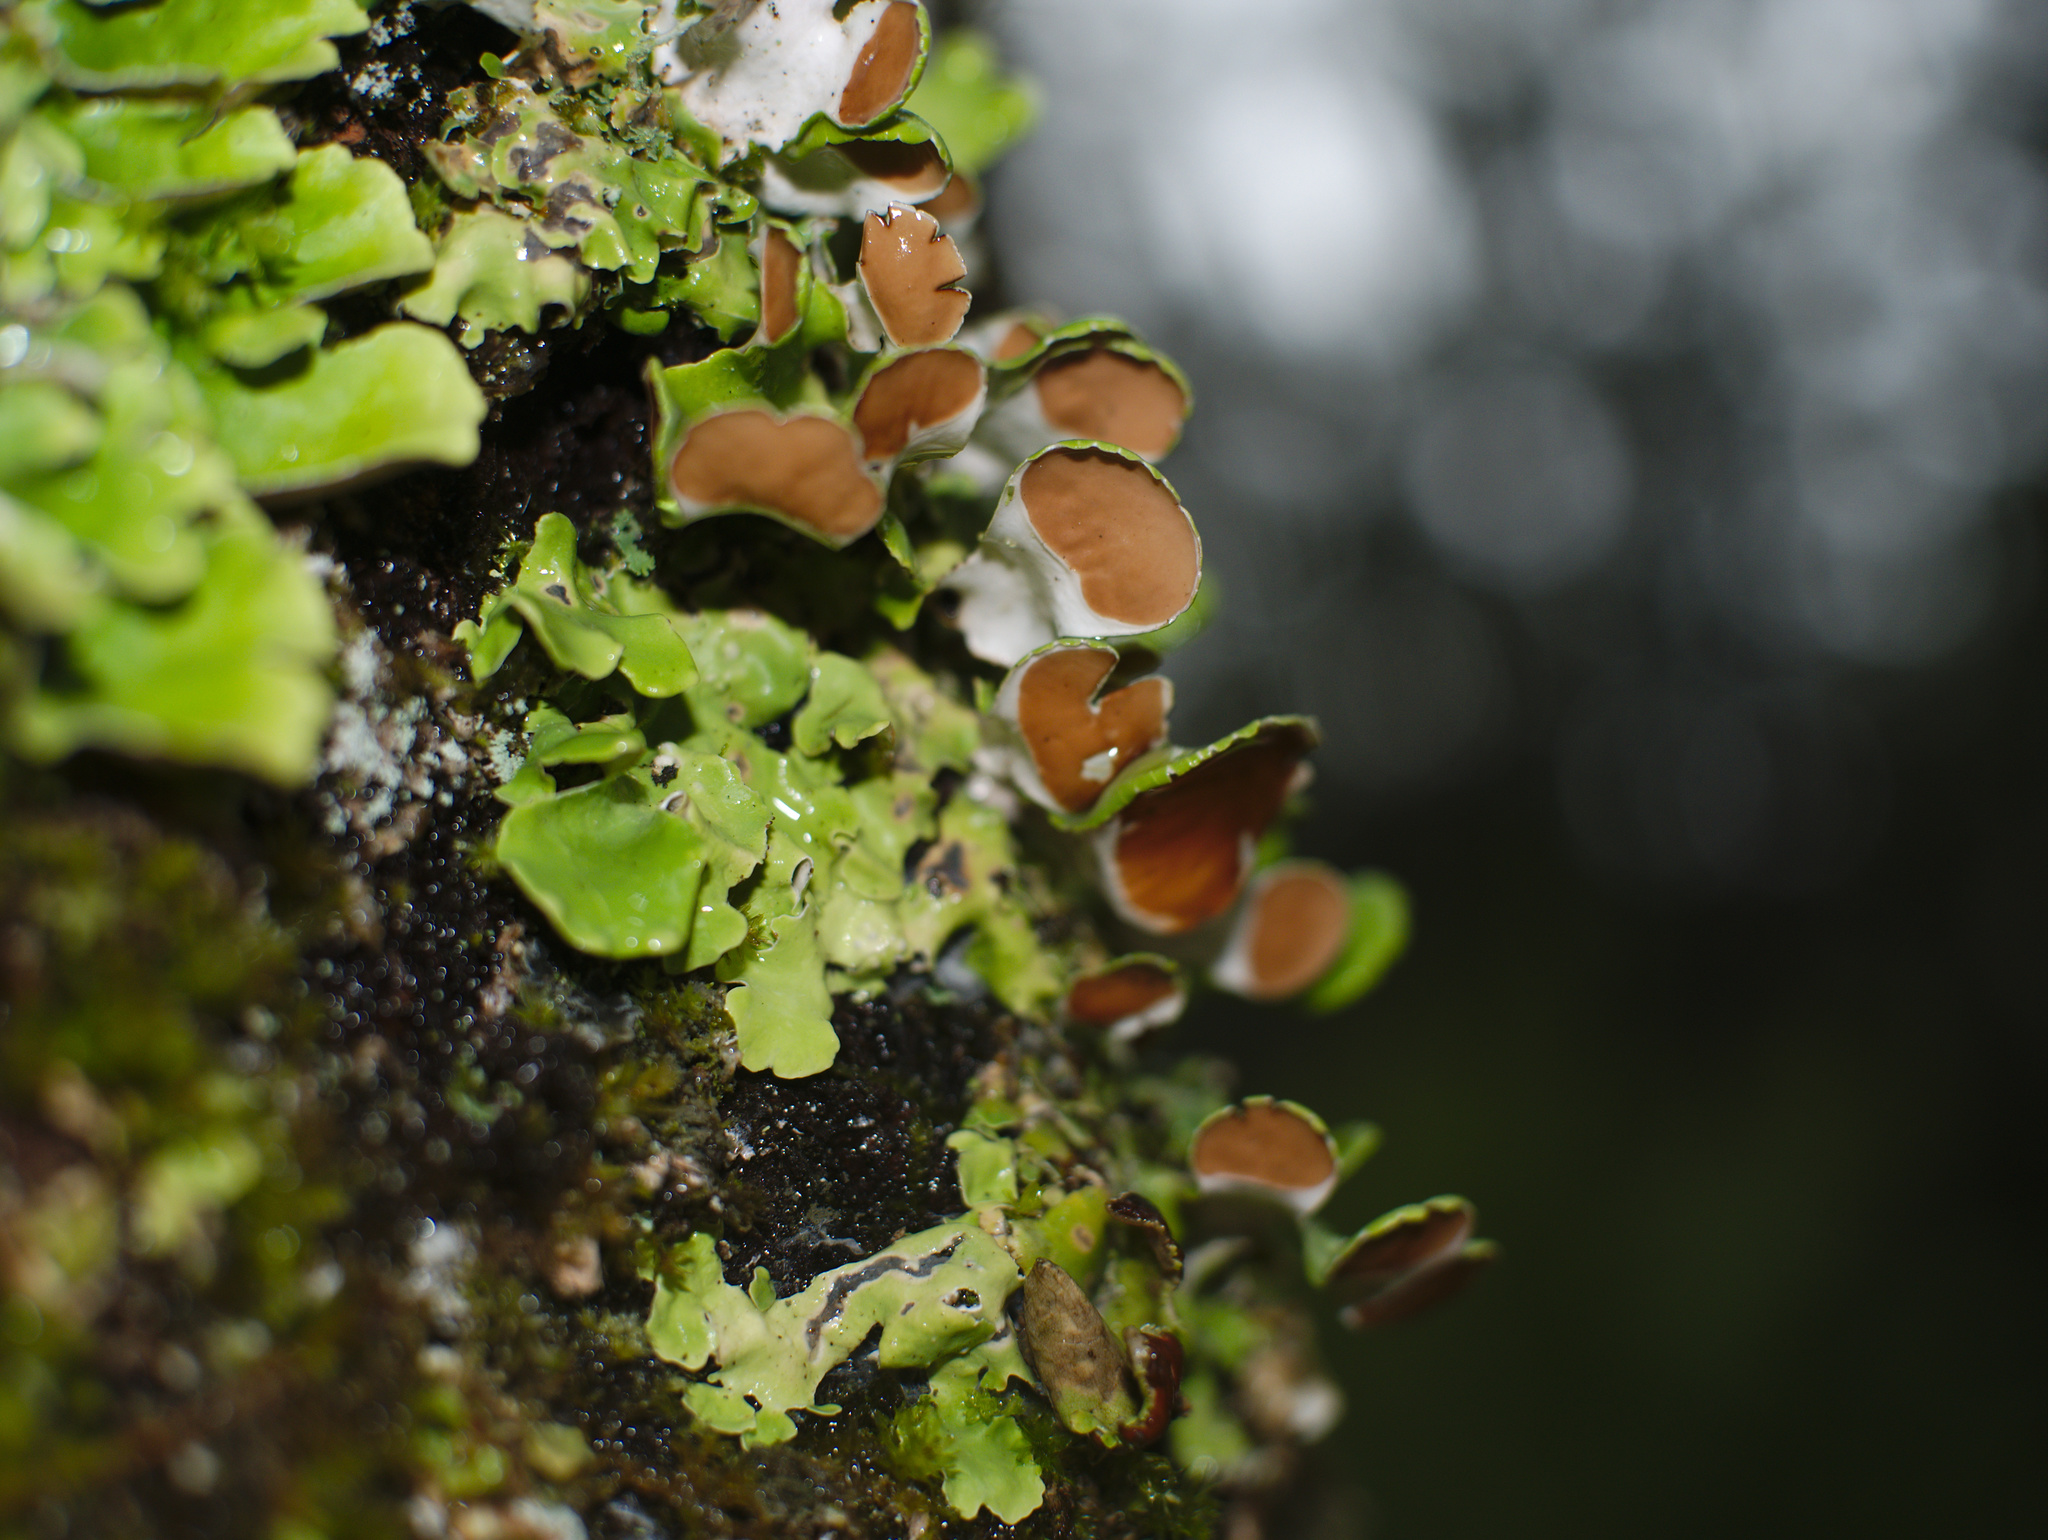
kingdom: Fungi
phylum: Ascomycota
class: Lecanoromycetes
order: Peltigerales
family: Nephromataceae
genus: Nephroma
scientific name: Nephroma australe
